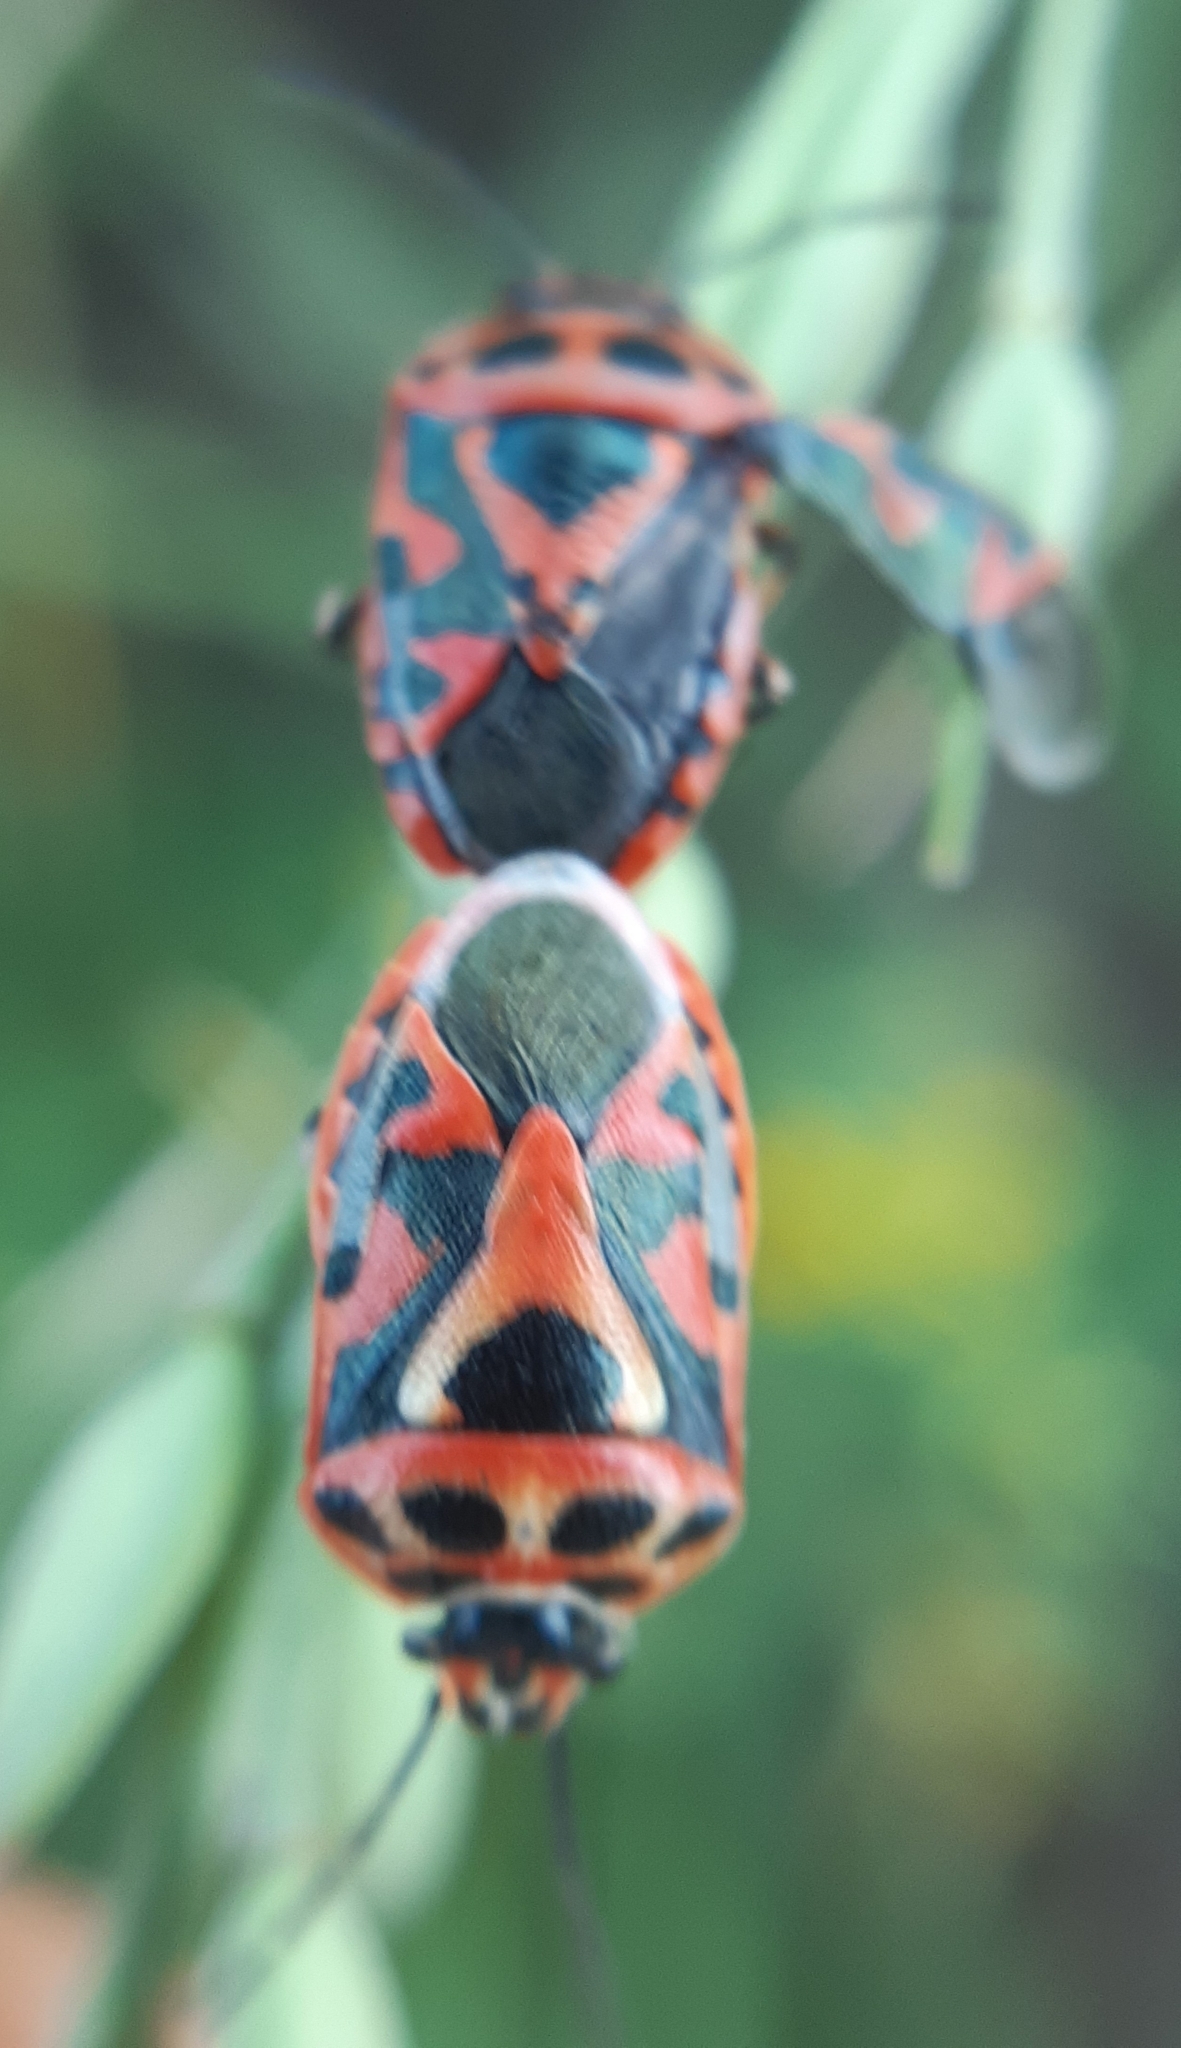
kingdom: Animalia
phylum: Arthropoda
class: Insecta
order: Hemiptera
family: Pentatomidae
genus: Eurydema
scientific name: Eurydema ornata
